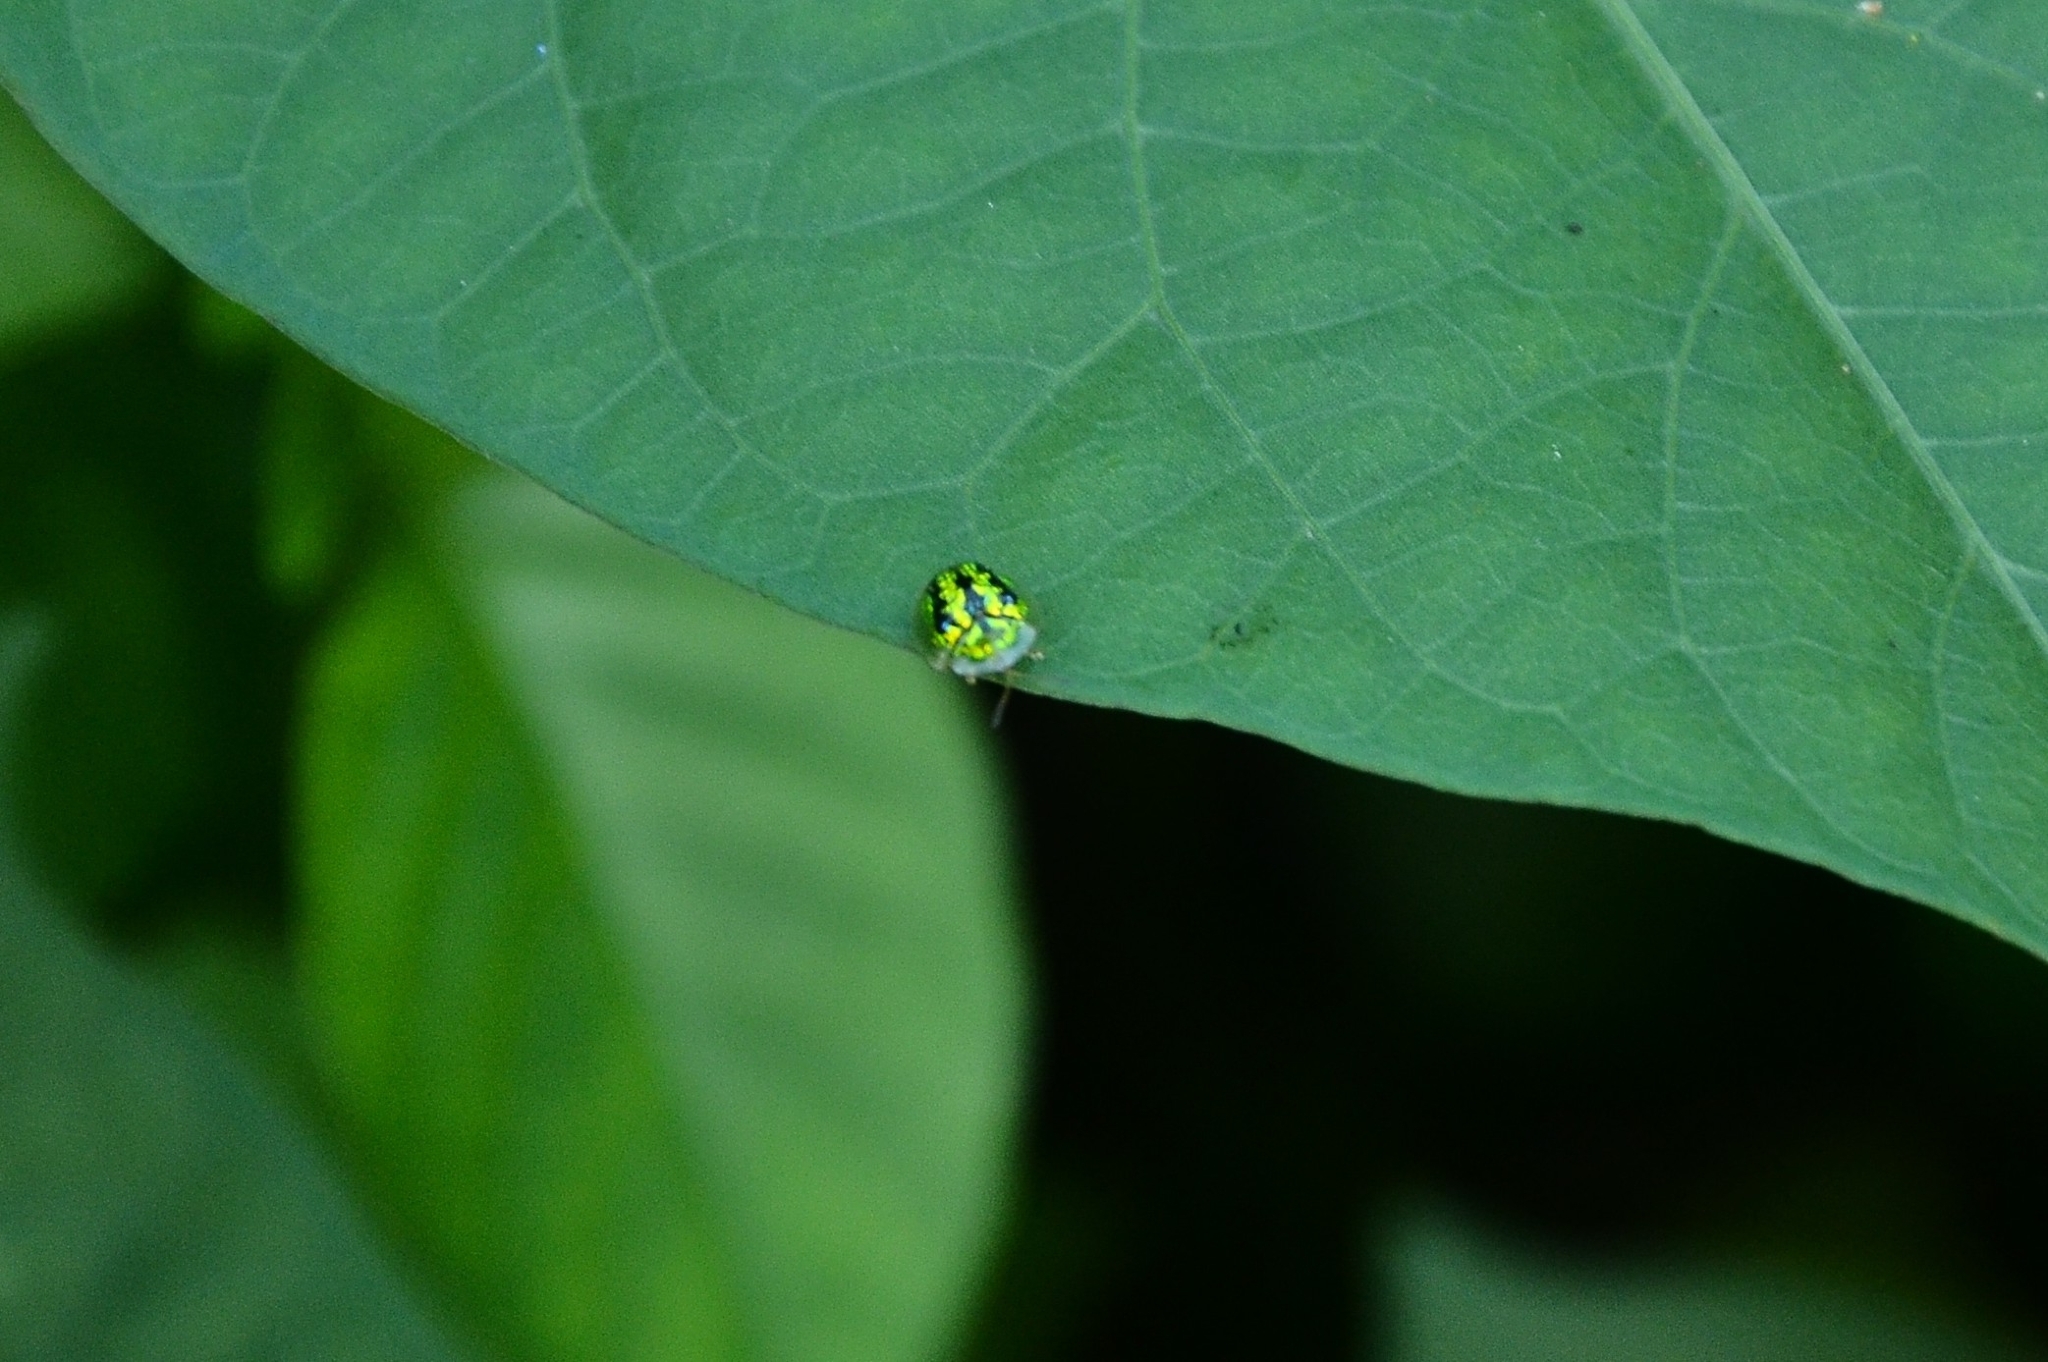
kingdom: Animalia
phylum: Arthropoda
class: Insecta
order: Coleoptera
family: Chrysomelidae
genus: Cassida
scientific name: Cassida circumdata
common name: Tortoise beetle
